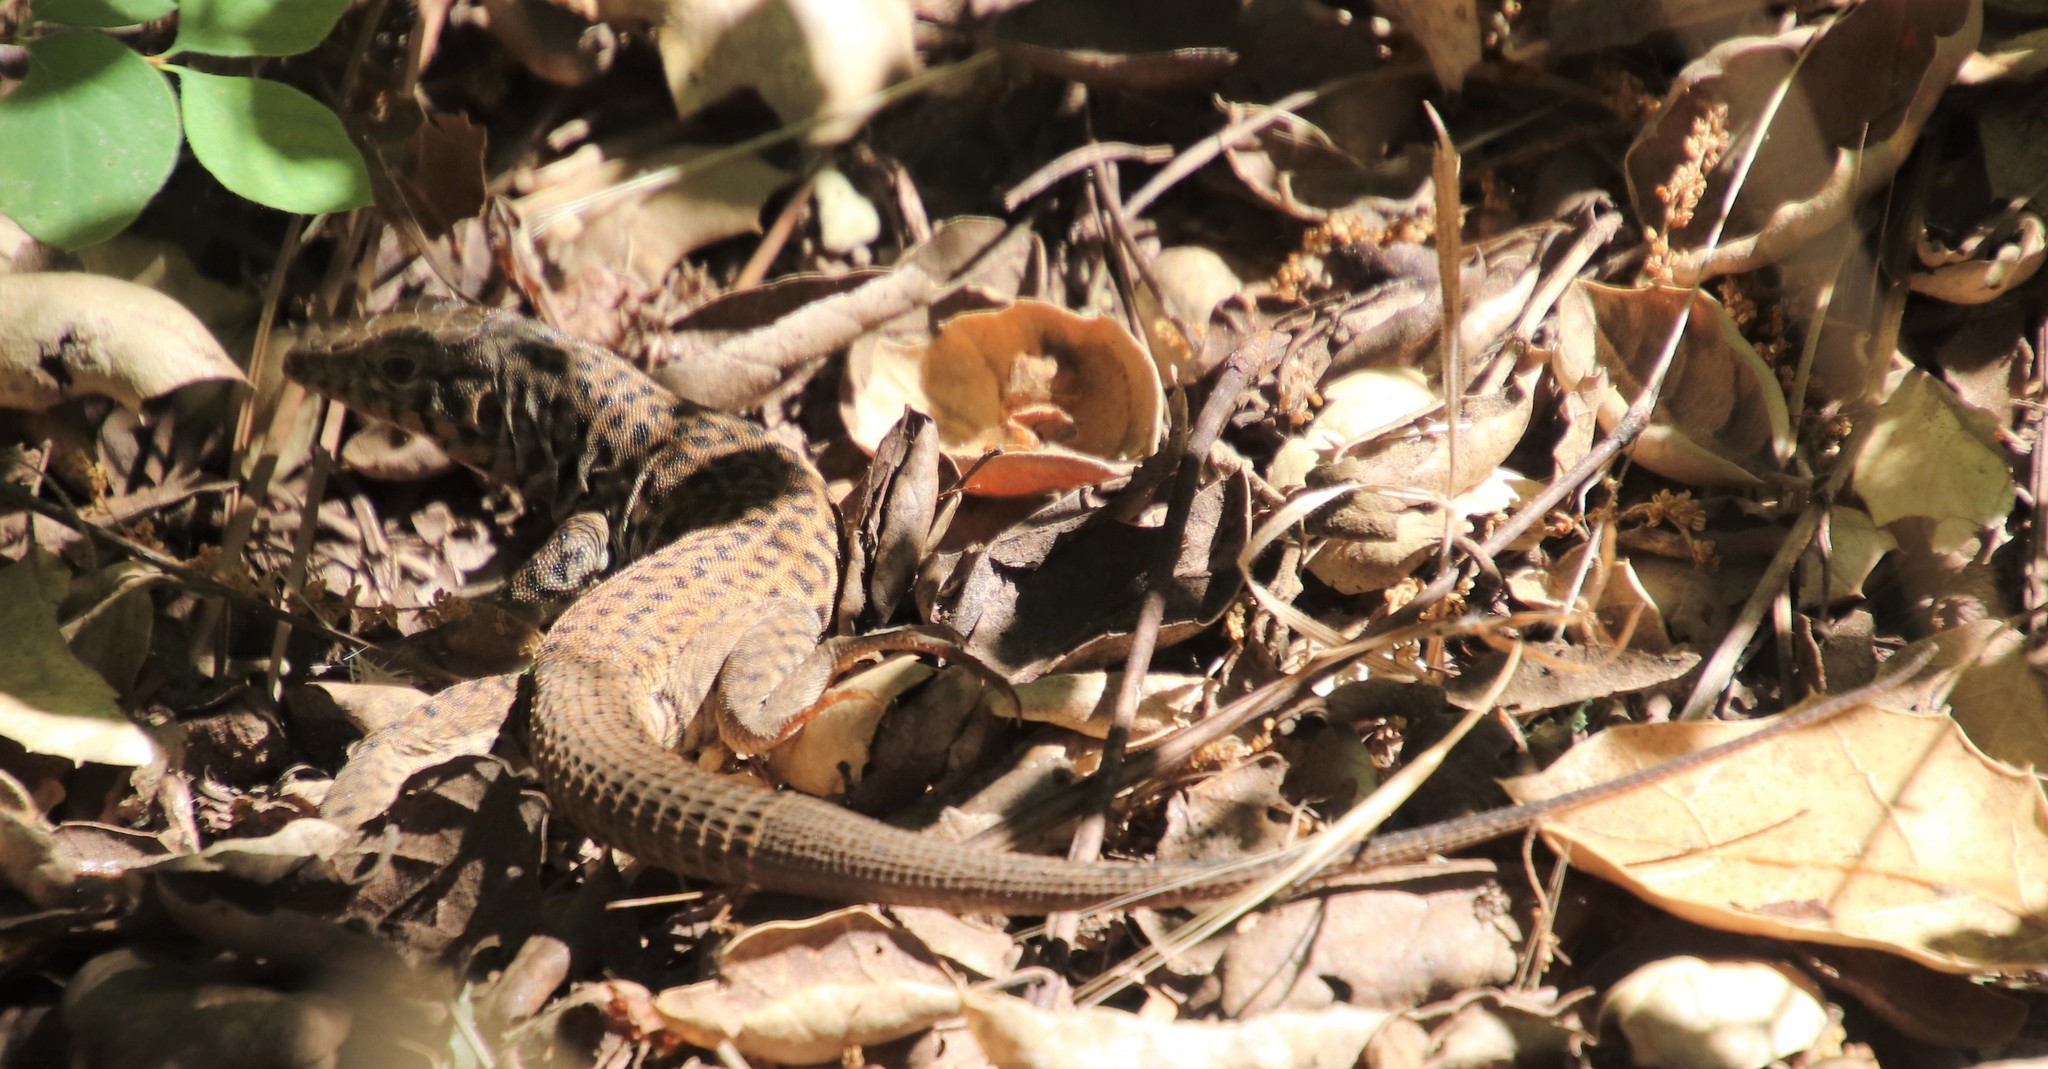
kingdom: Animalia
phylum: Chordata
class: Squamata
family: Teiidae
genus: Aspidoscelis
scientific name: Aspidoscelis tigris
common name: Tiger whiptail
